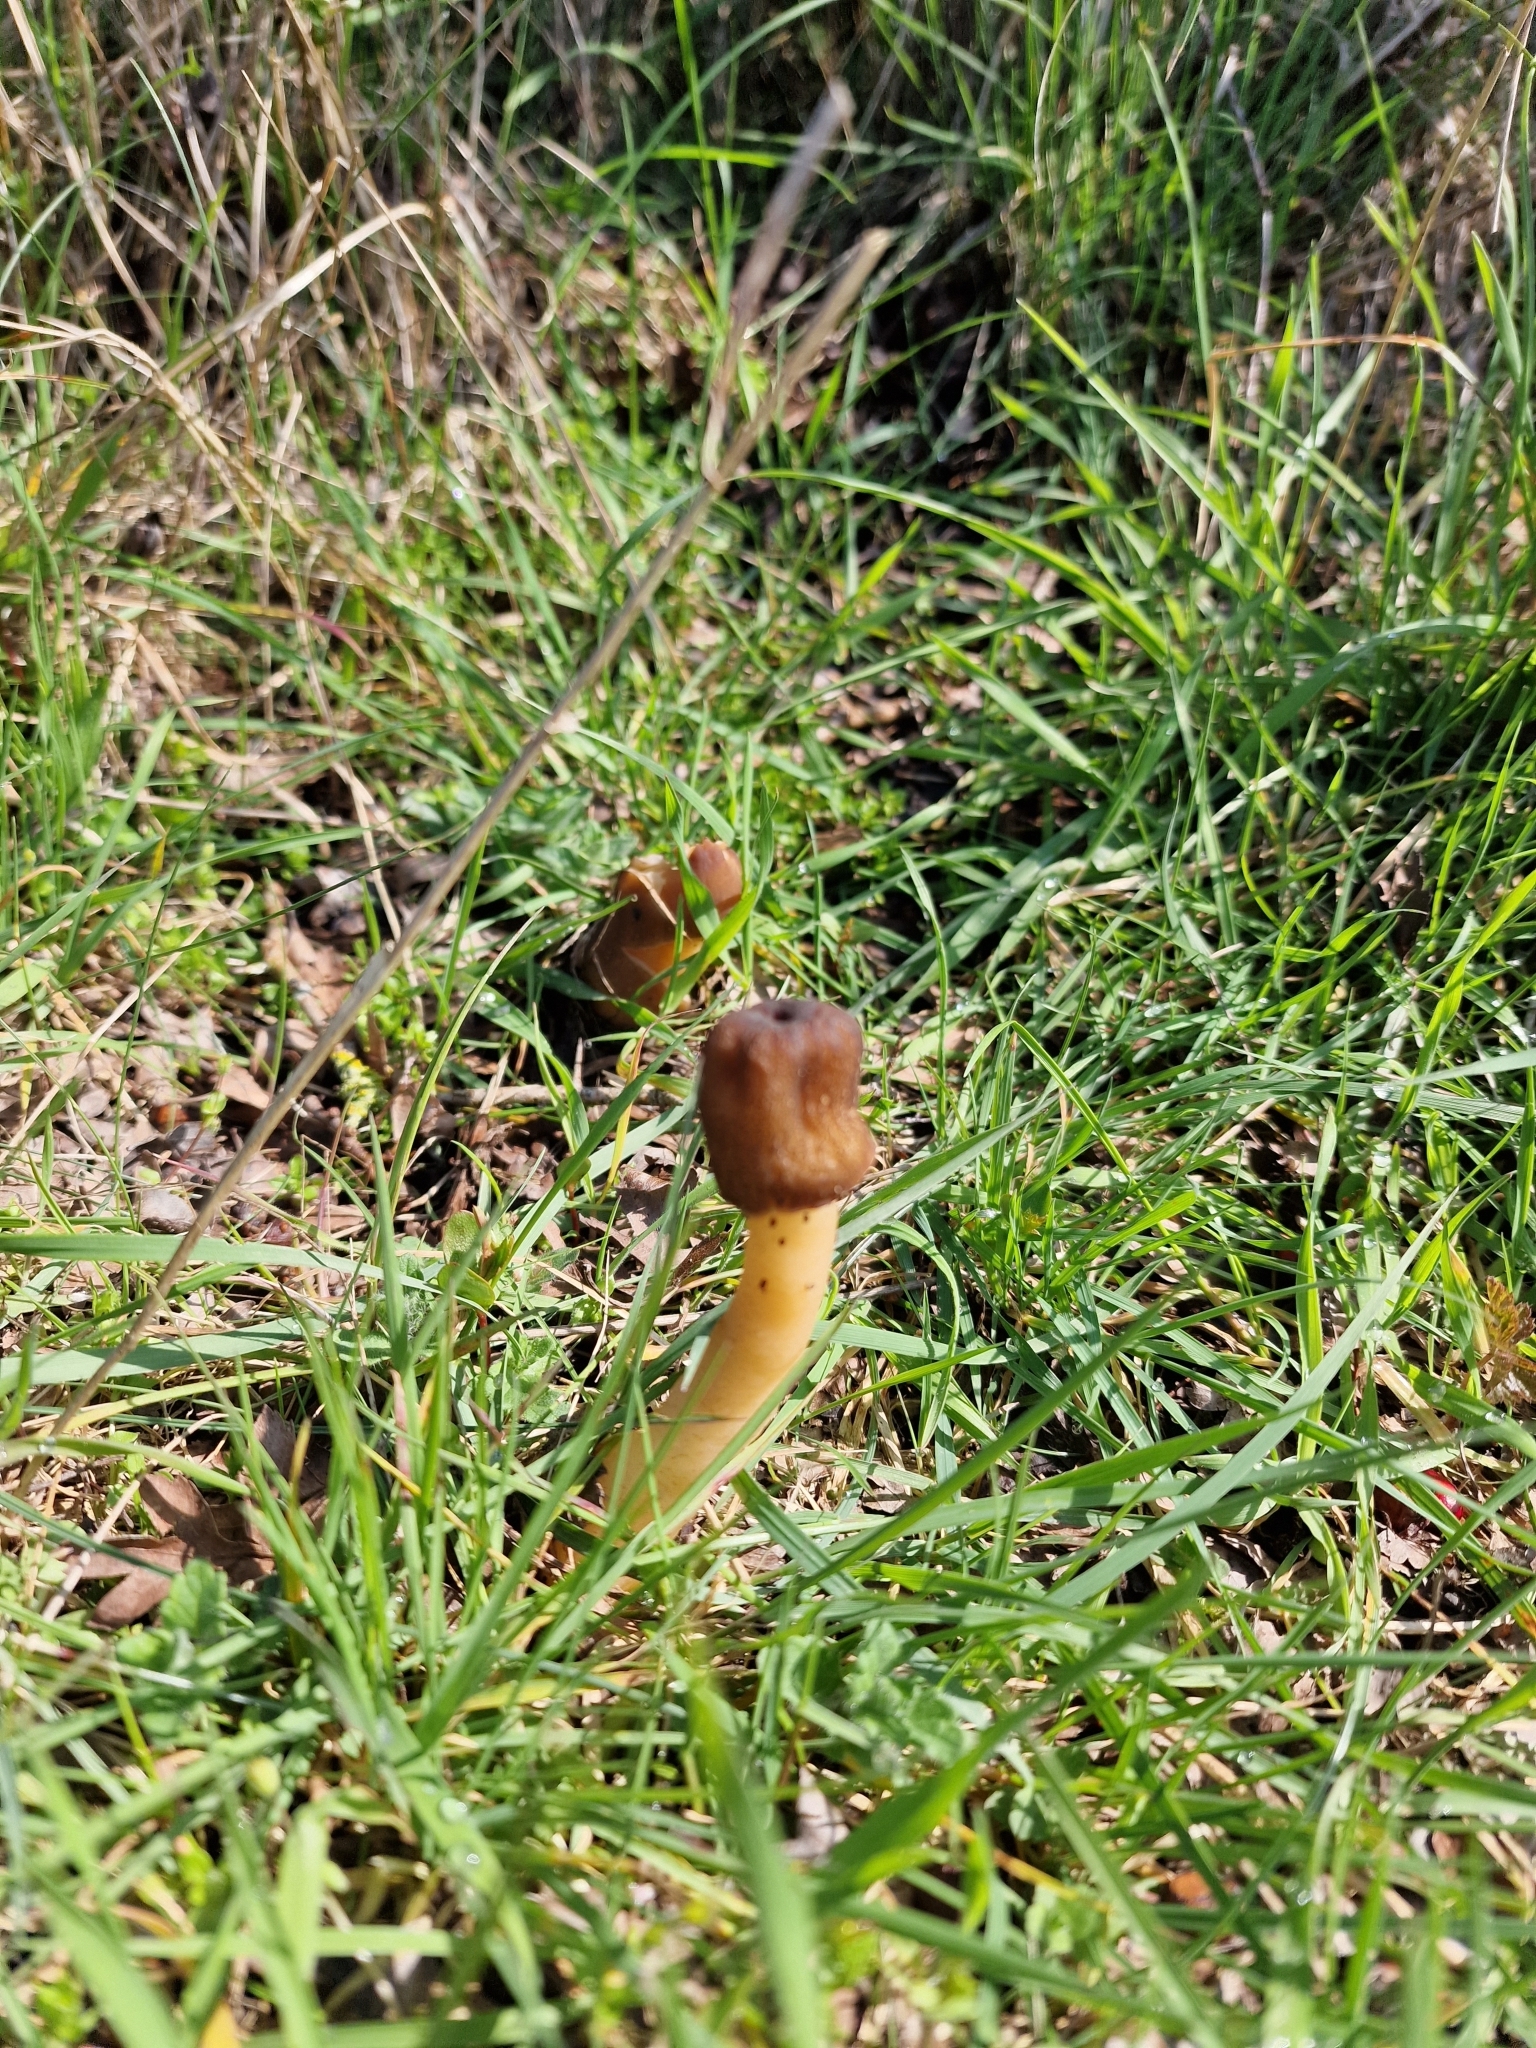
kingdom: Fungi
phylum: Ascomycota
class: Pezizomycetes
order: Pezizales
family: Morchellaceae
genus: Verpa
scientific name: Verpa conica
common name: Thimble morel
